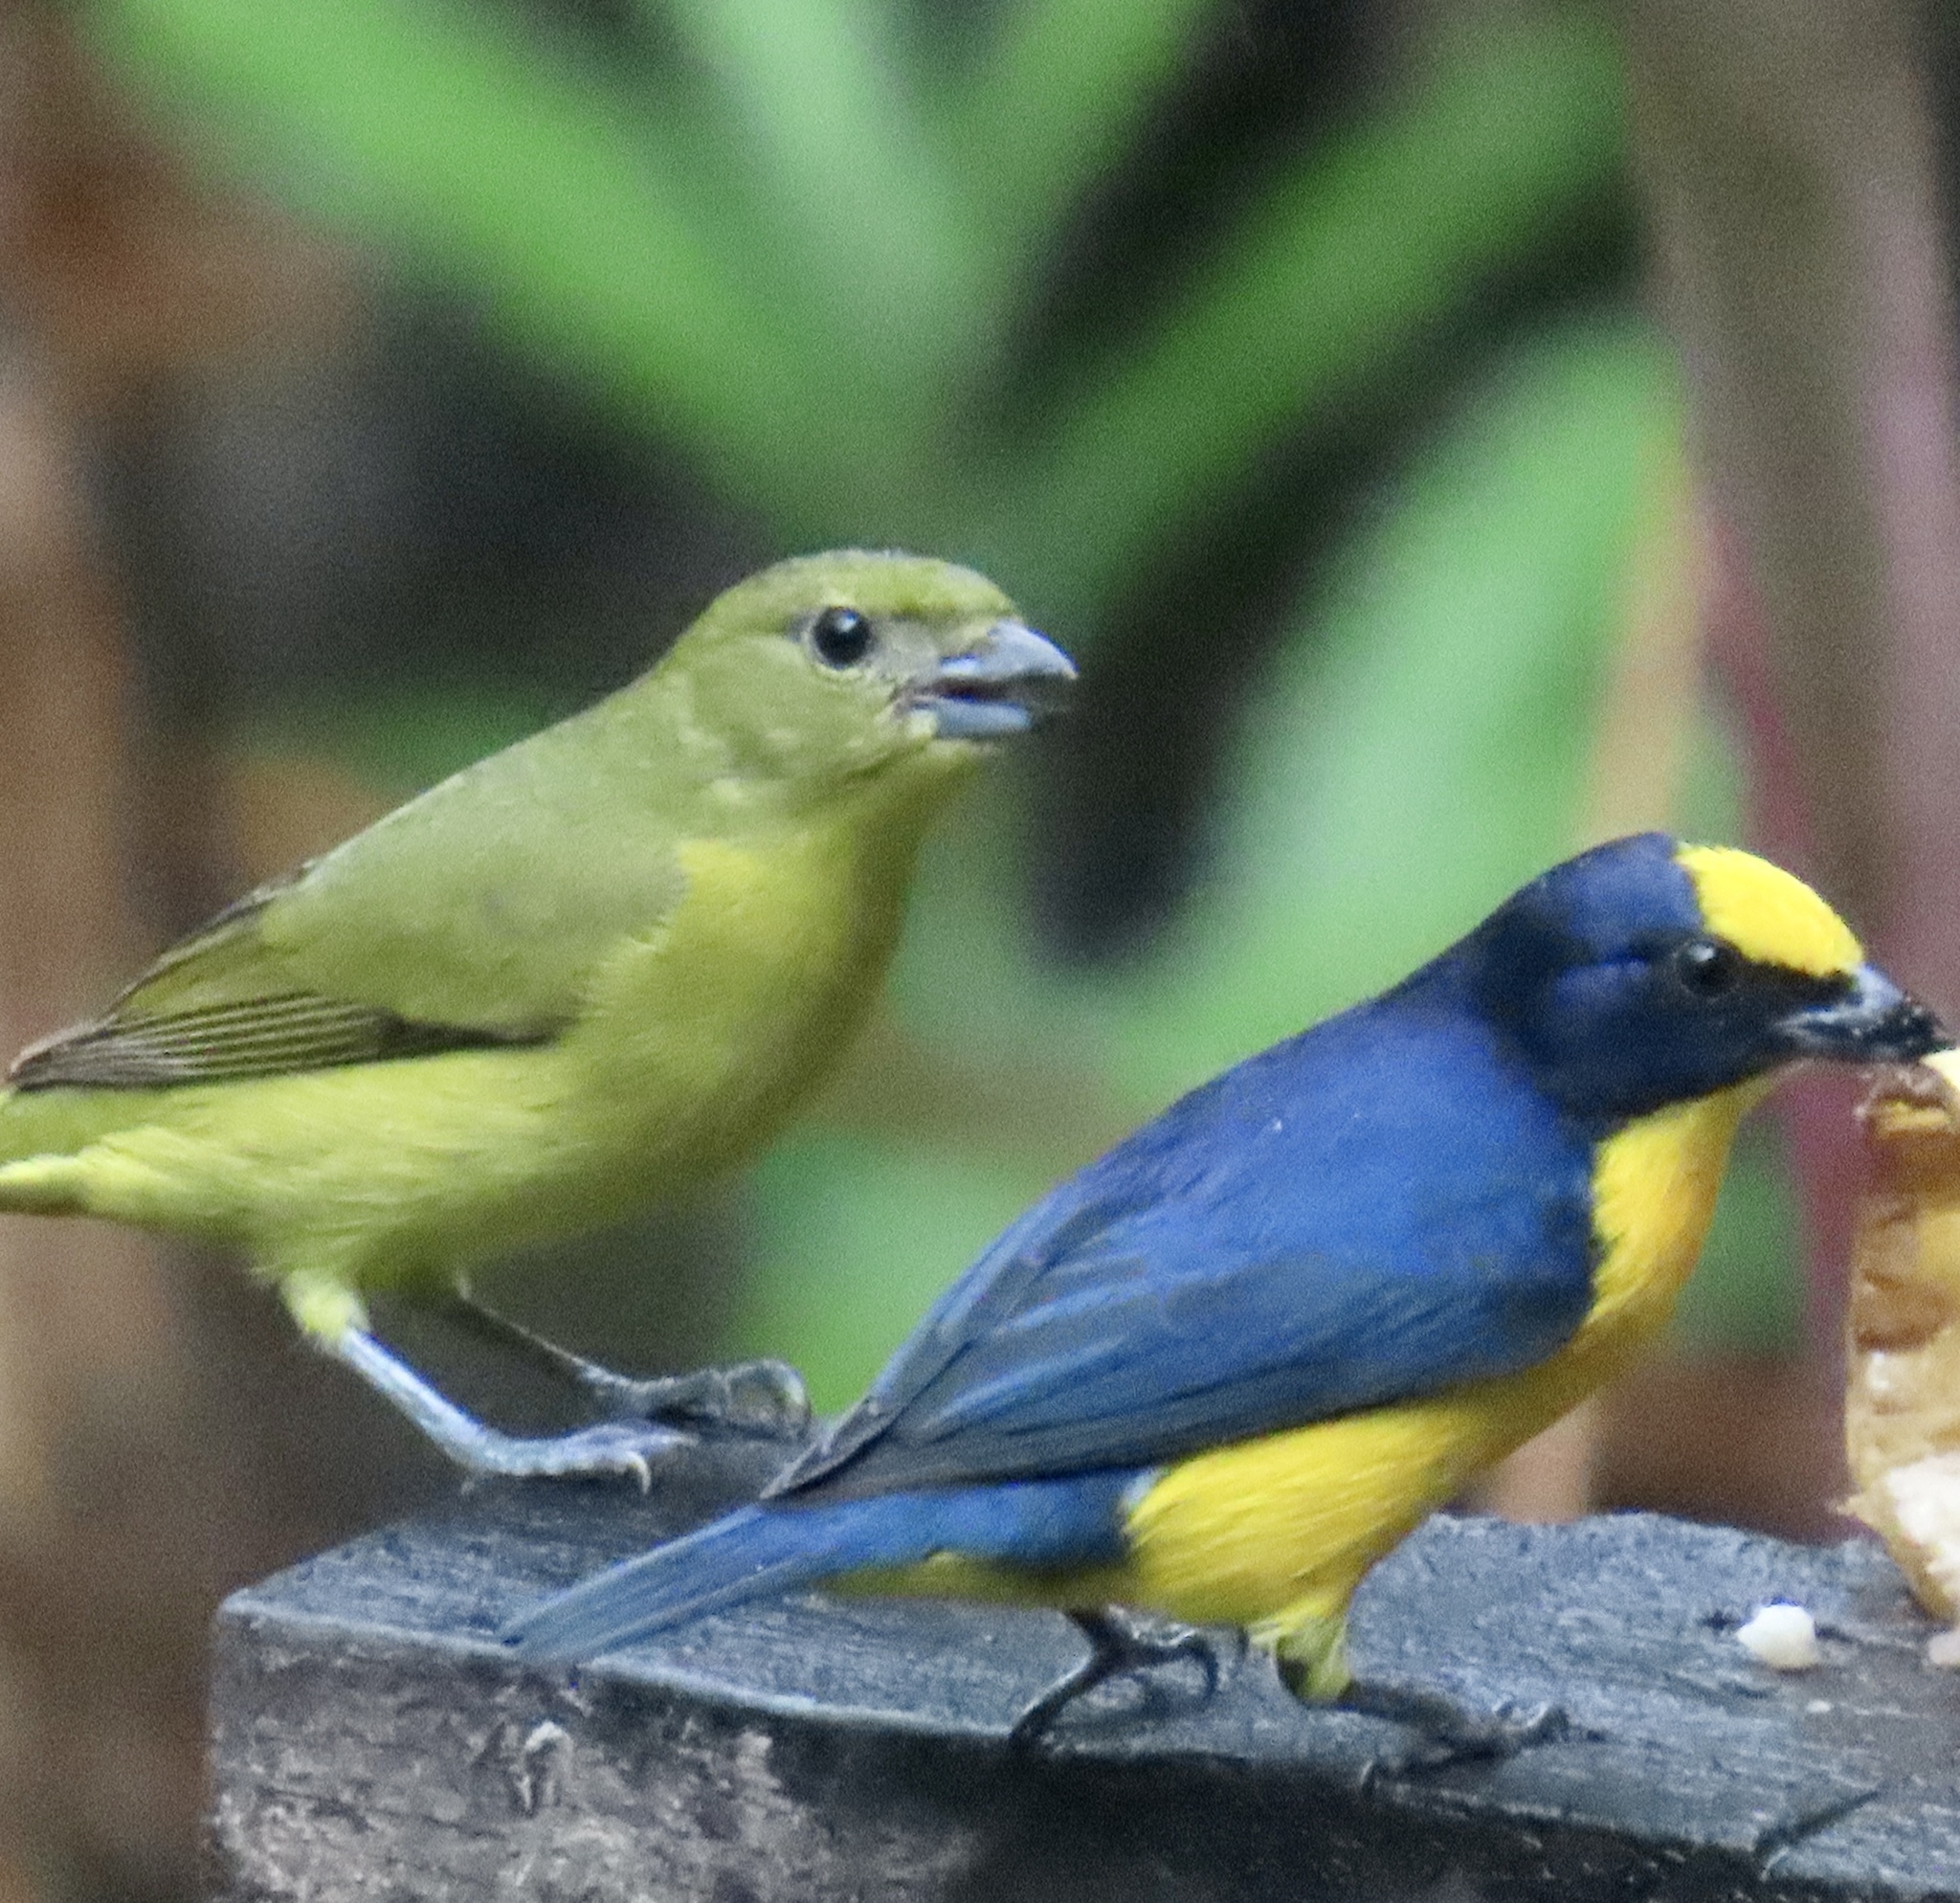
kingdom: Animalia
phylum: Chordata
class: Aves
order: Passeriformes
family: Fringillidae
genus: Euphonia
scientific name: Euphonia laniirostris
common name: Thick-billed euphonia
